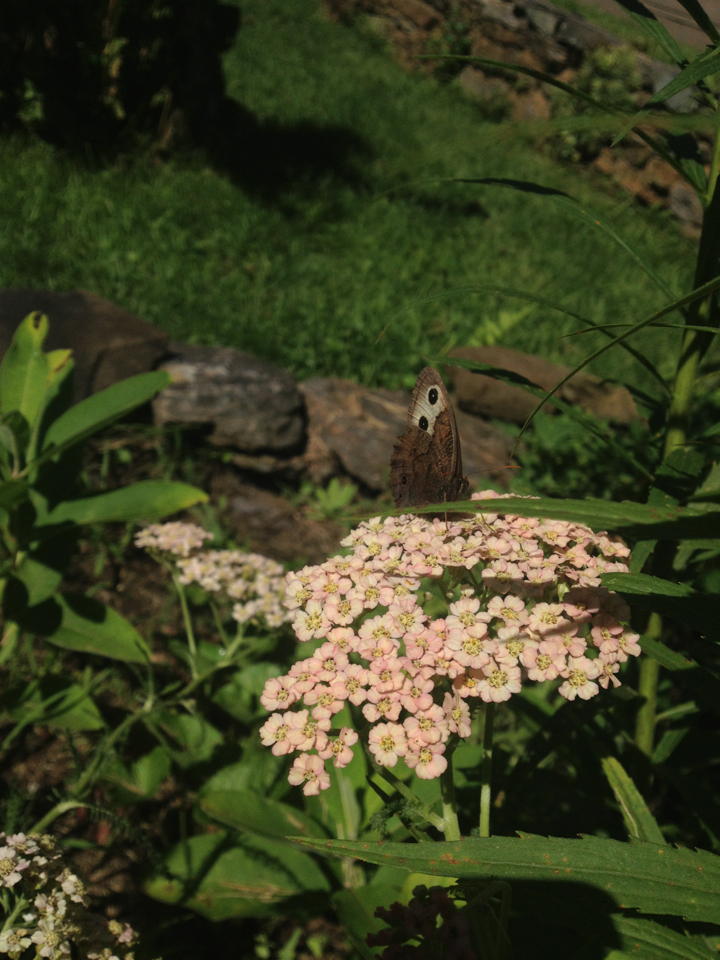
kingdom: Animalia
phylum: Arthropoda
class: Insecta
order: Lepidoptera
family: Nymphalidae
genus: Cercyonis
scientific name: Cercyonis pegala
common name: Common wood-nymph
